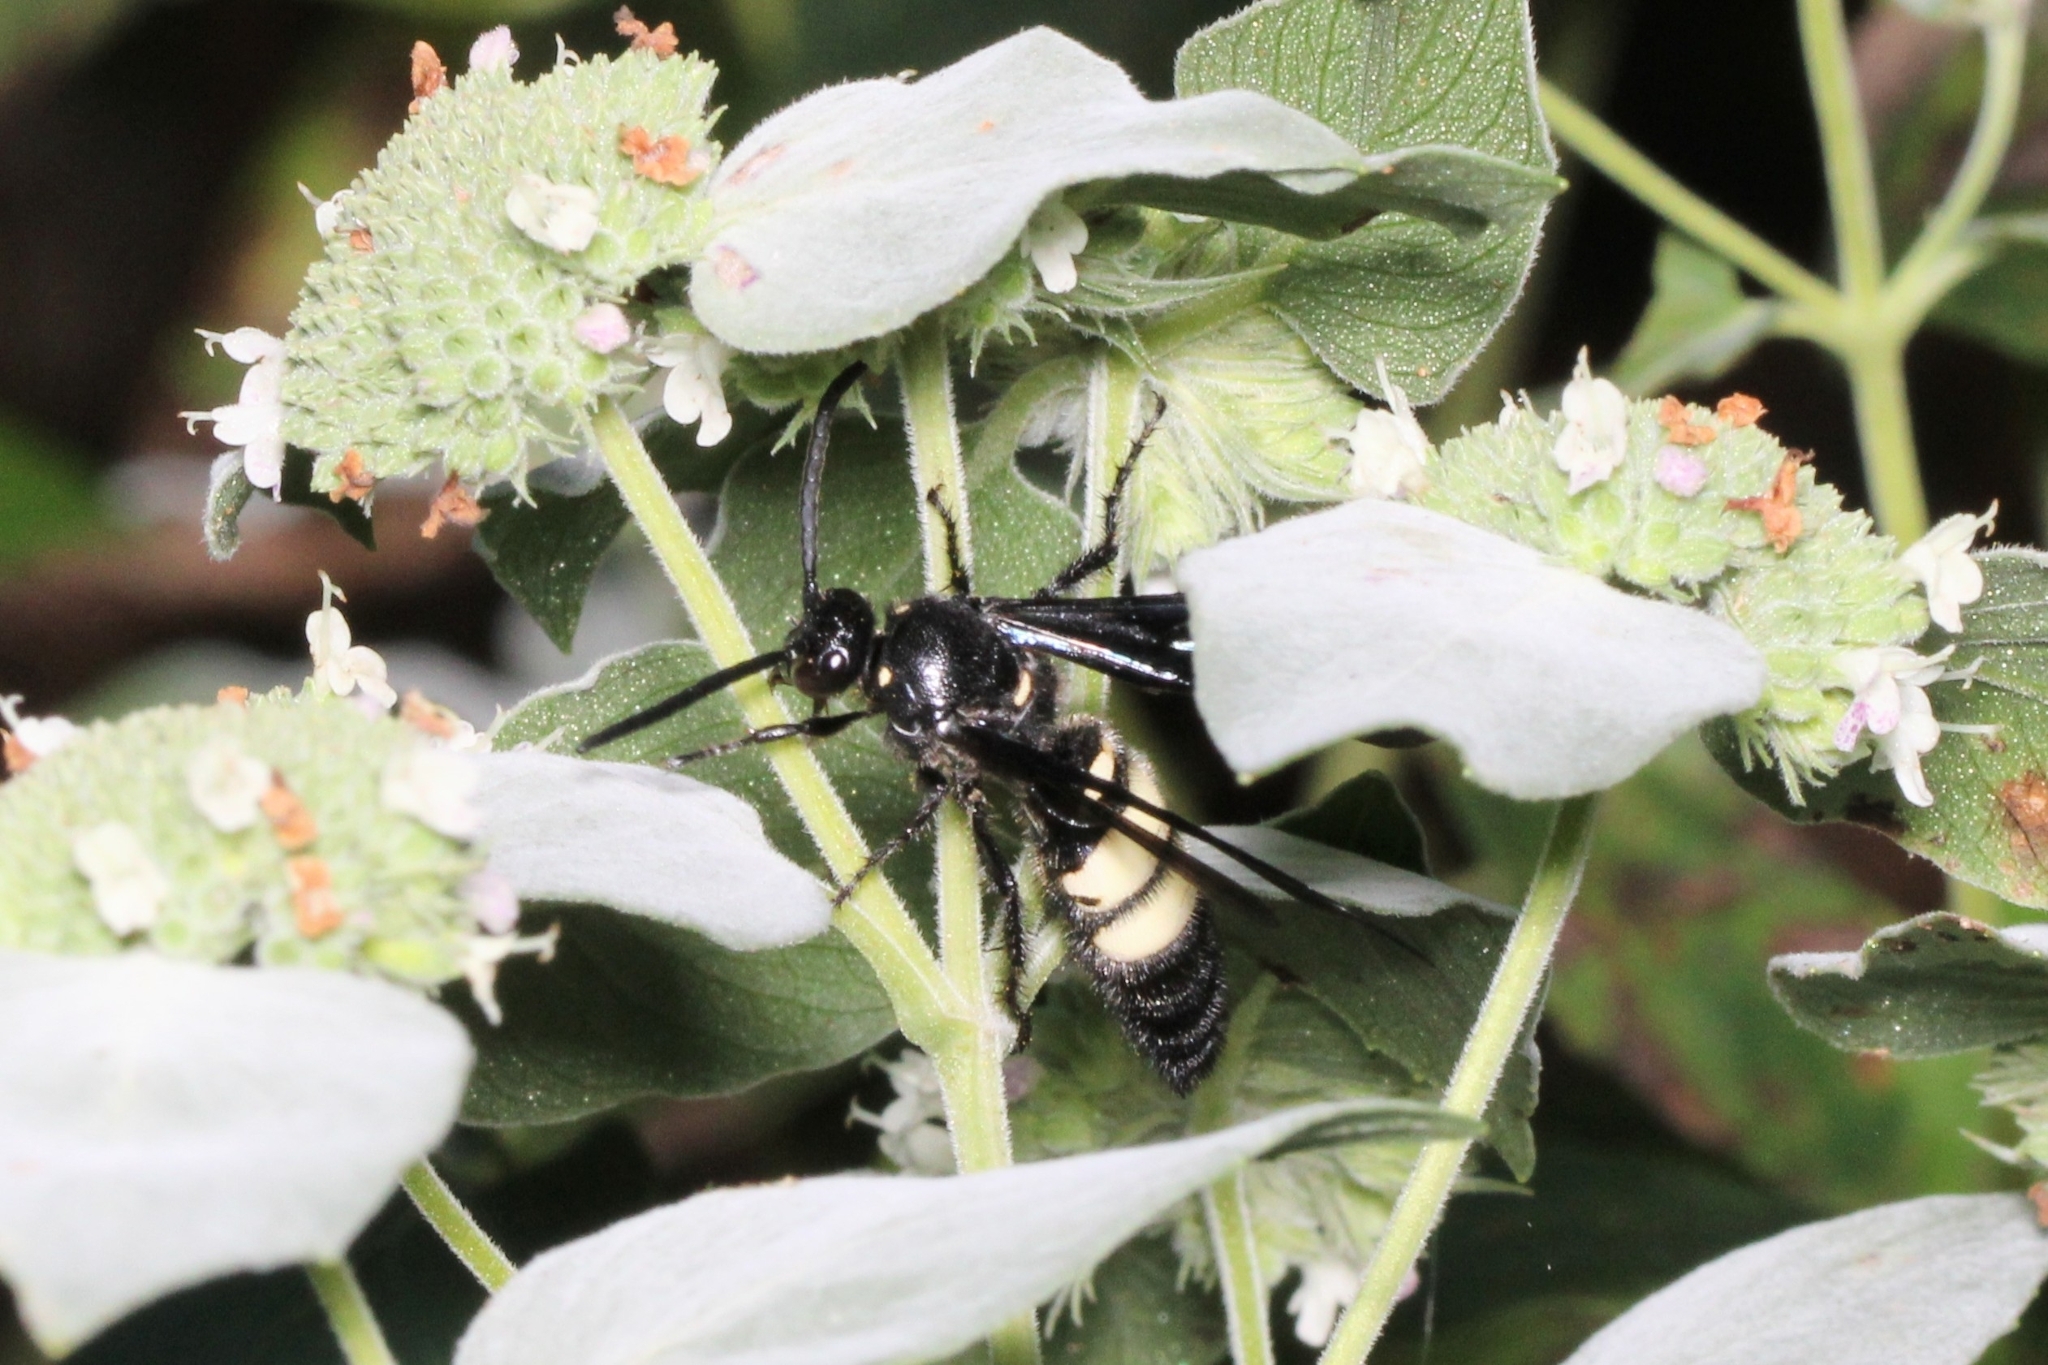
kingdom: Animalia
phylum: Arthropoda
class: Insecta
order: Hymenoptera
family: Scoliidae
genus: Scolia
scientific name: Scolia bicincta
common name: Double-banded scoliid wasp
